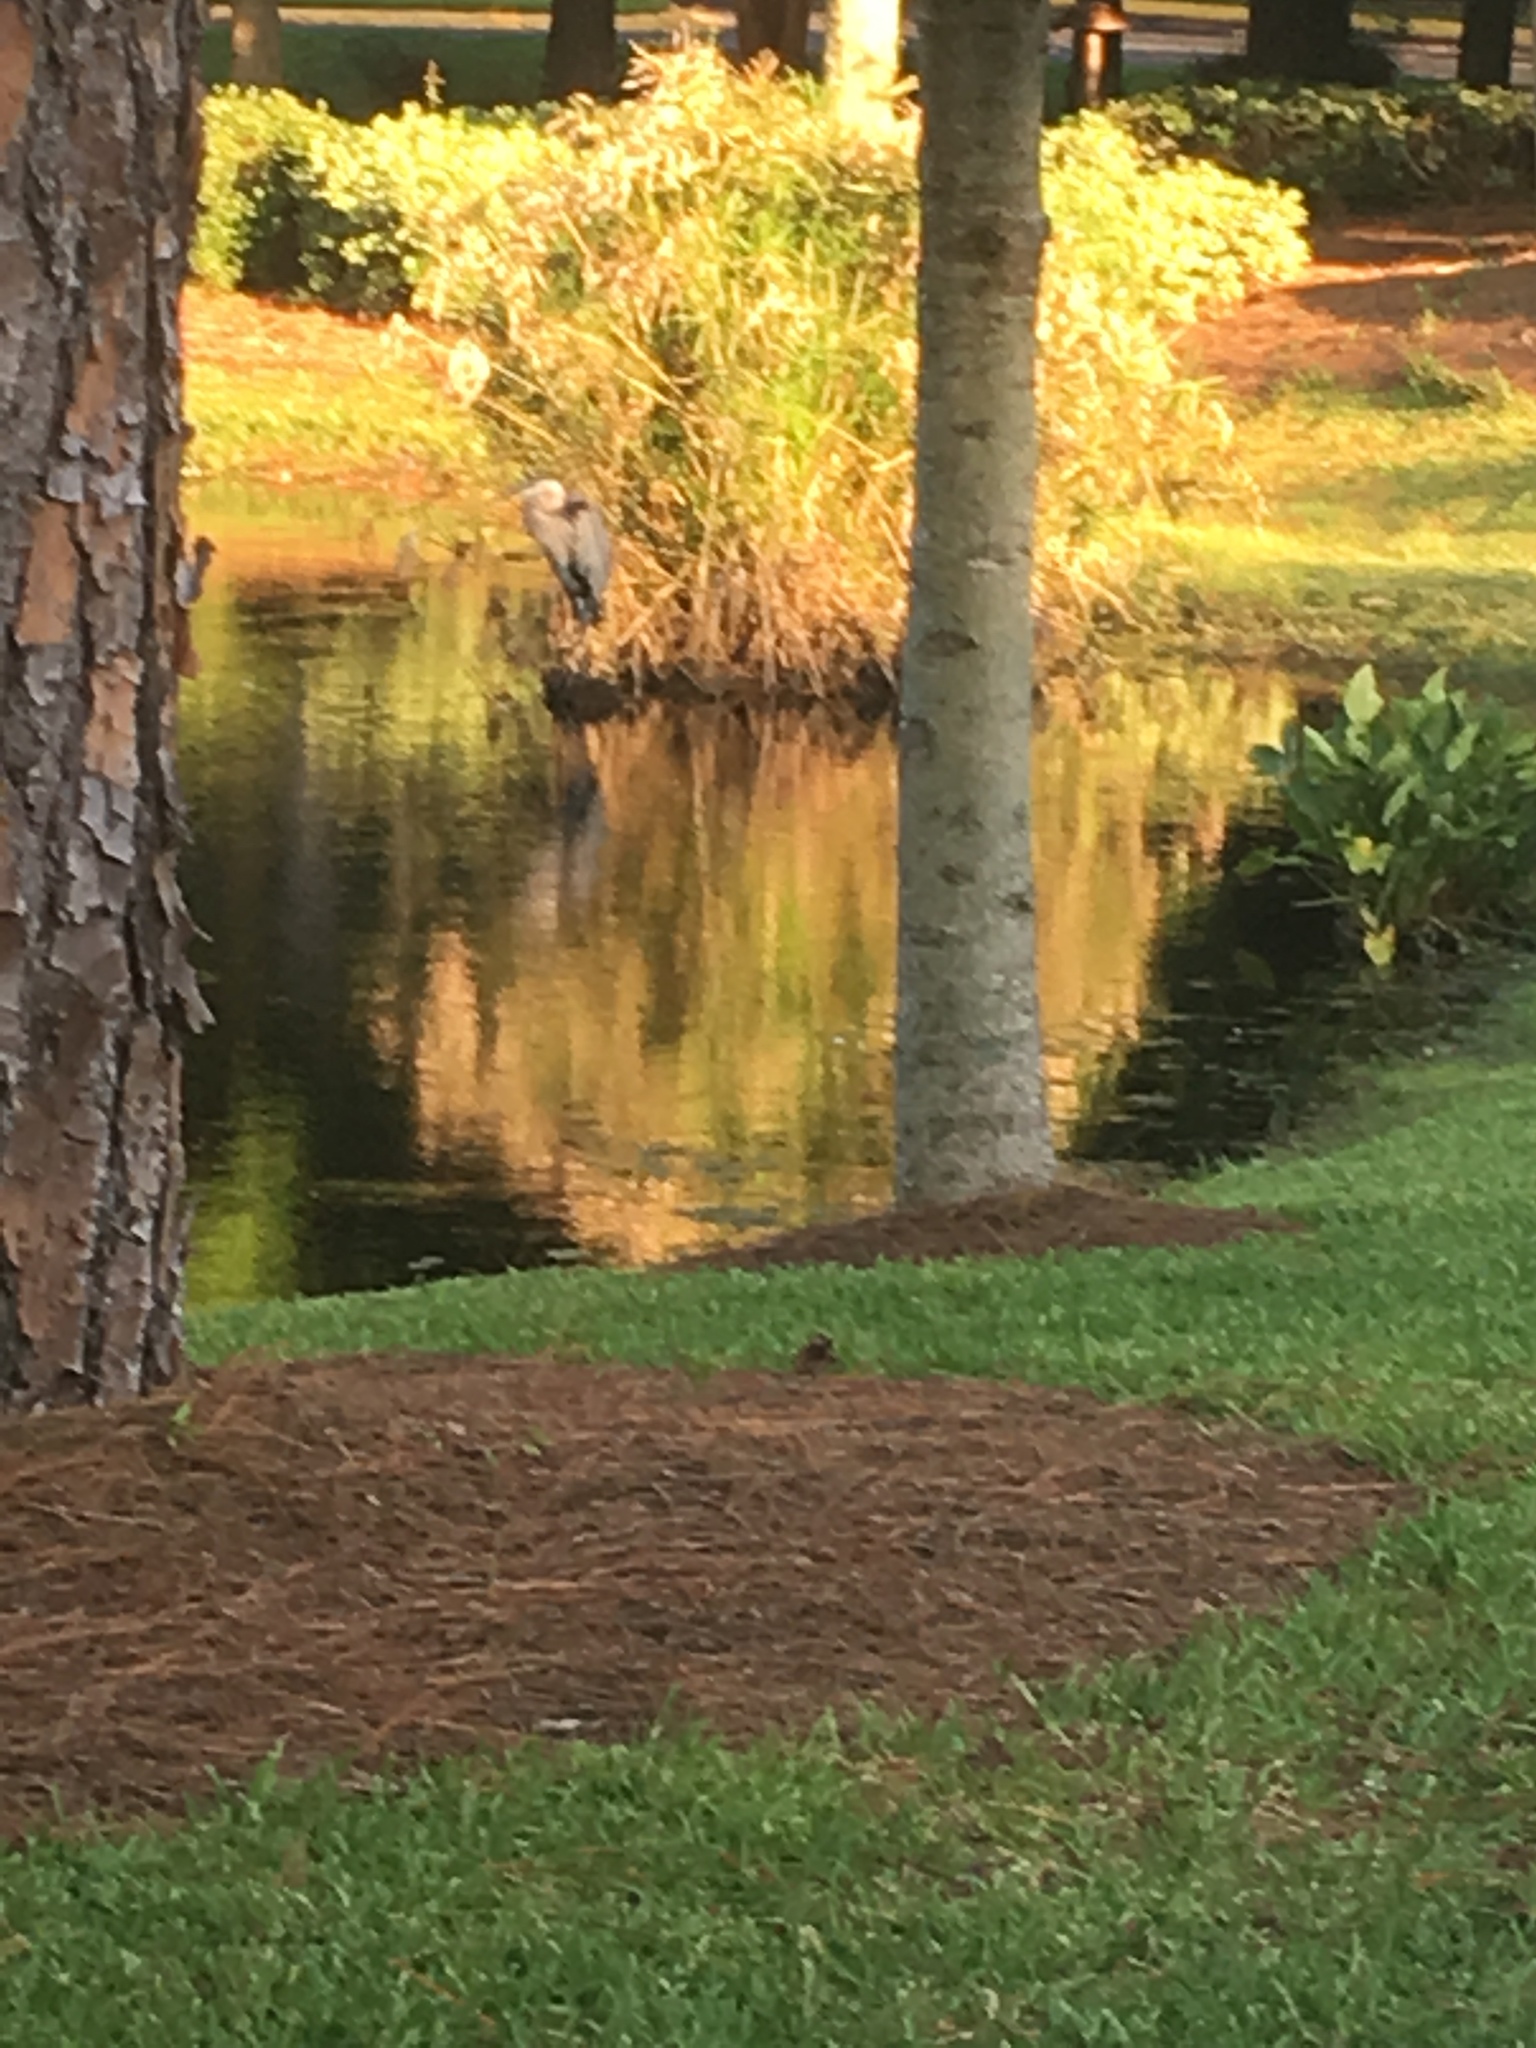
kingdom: Animalia
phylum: Chordata
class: Aves
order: Pelecaniformes
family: Ardeidae
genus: Ardea
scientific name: Ardea herodias
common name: Great blue heron
